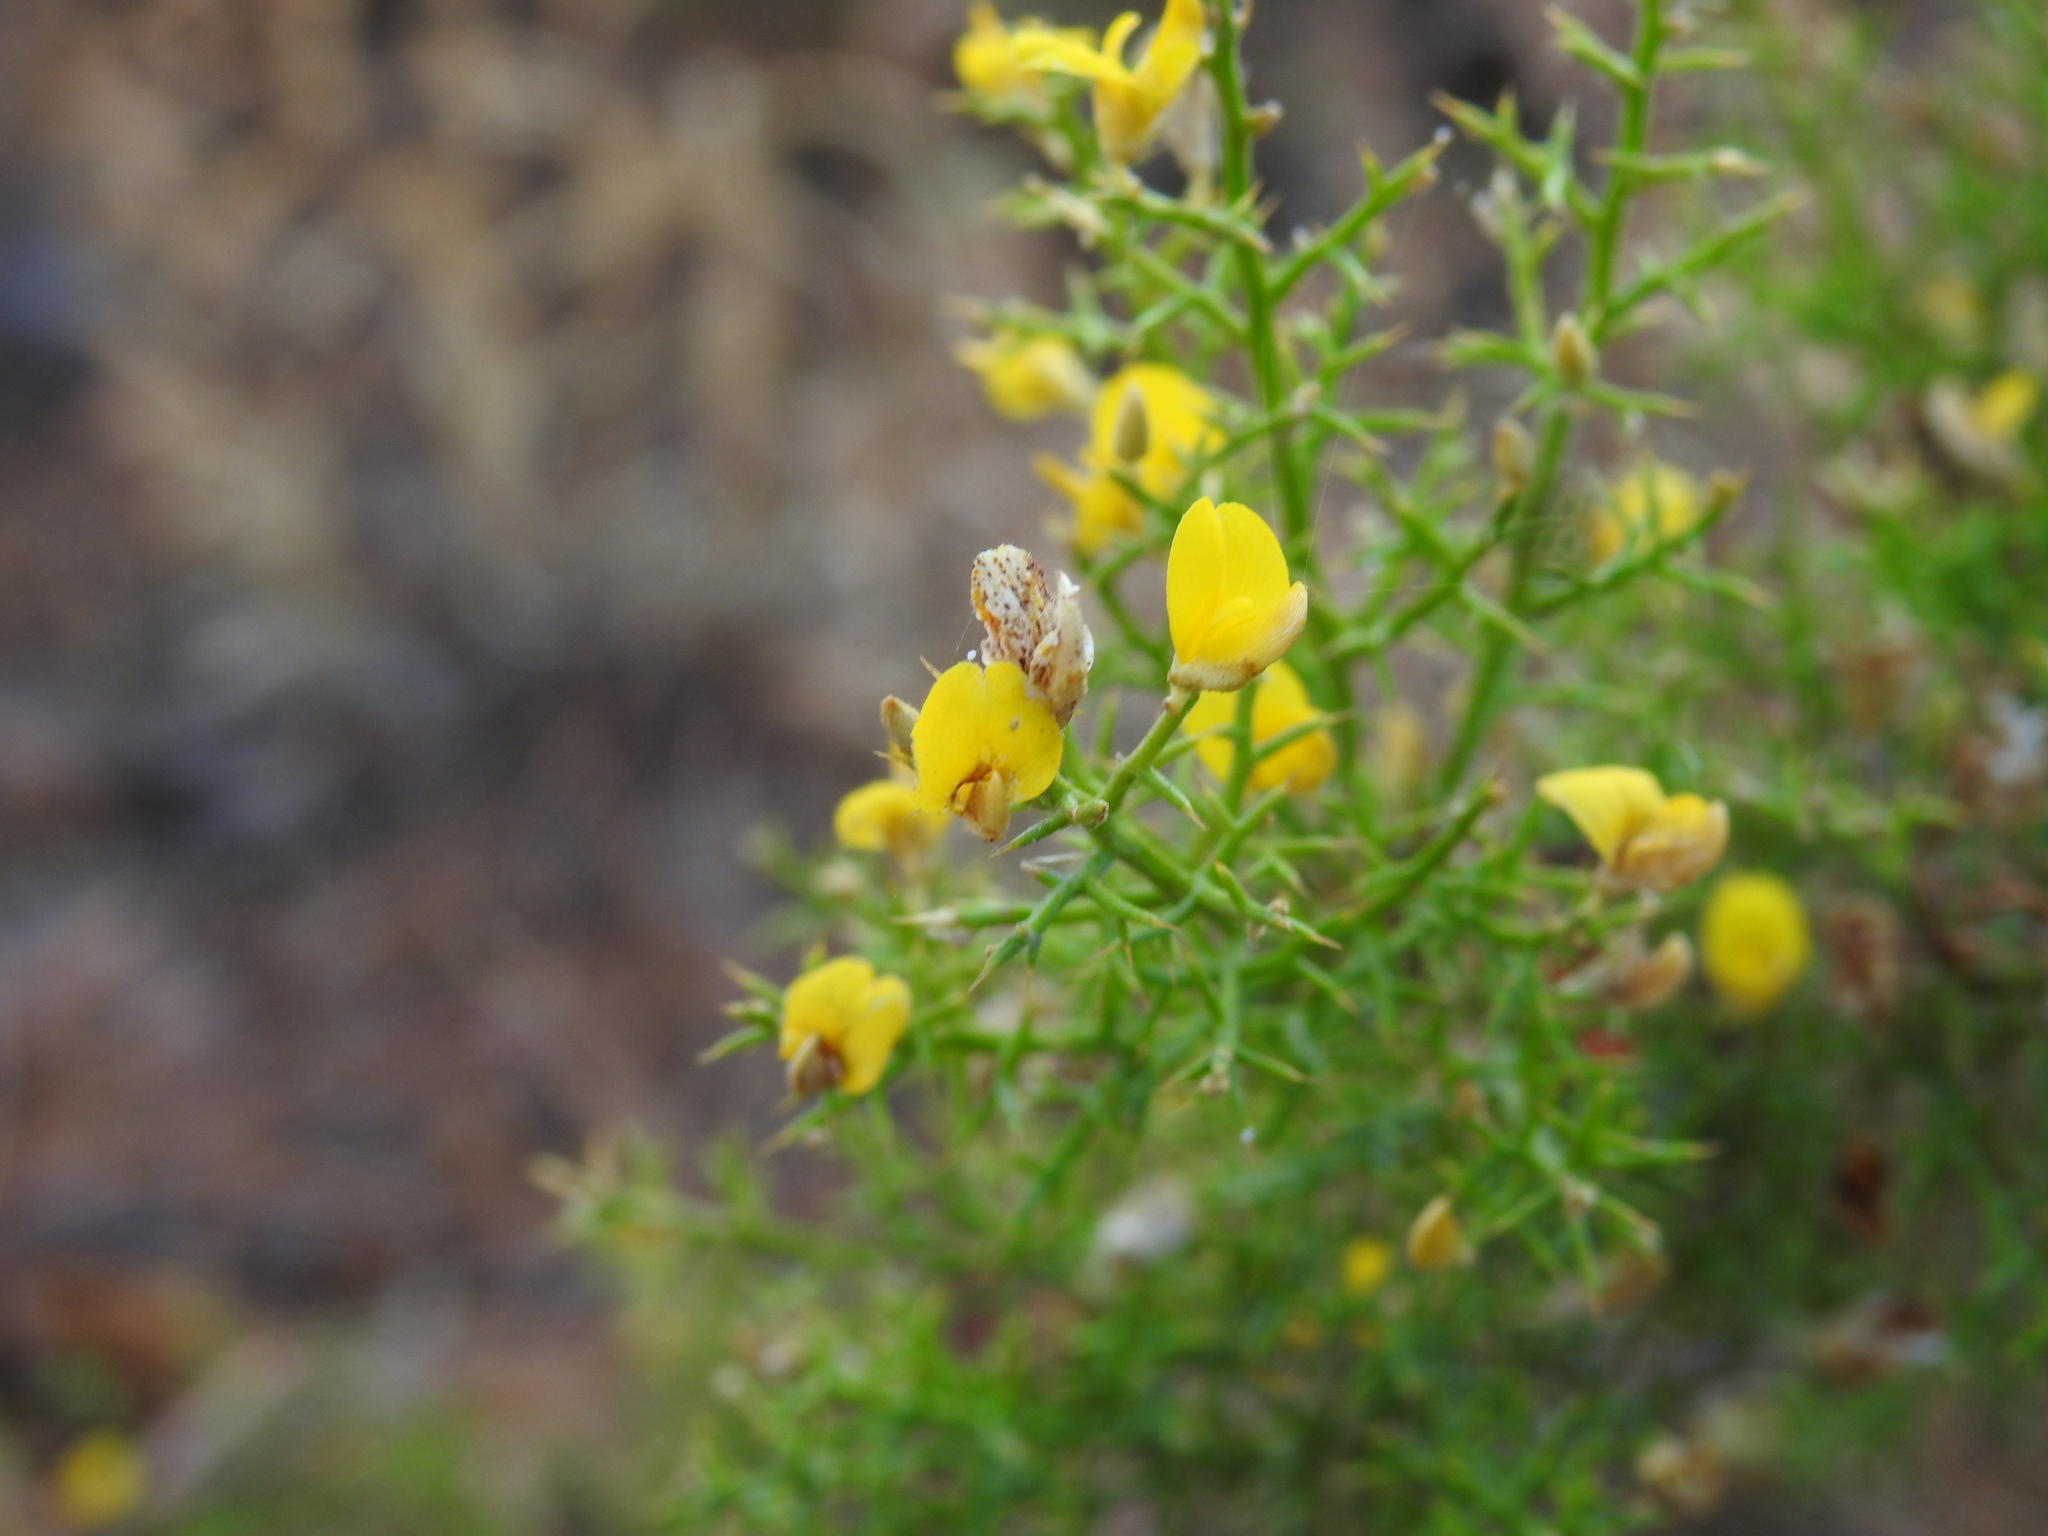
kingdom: Plantae
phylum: Tracheophyta
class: Magnoliopsida
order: Fabales
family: Fabaceae
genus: Stauracanthus
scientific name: Stauracanthus boivinii
